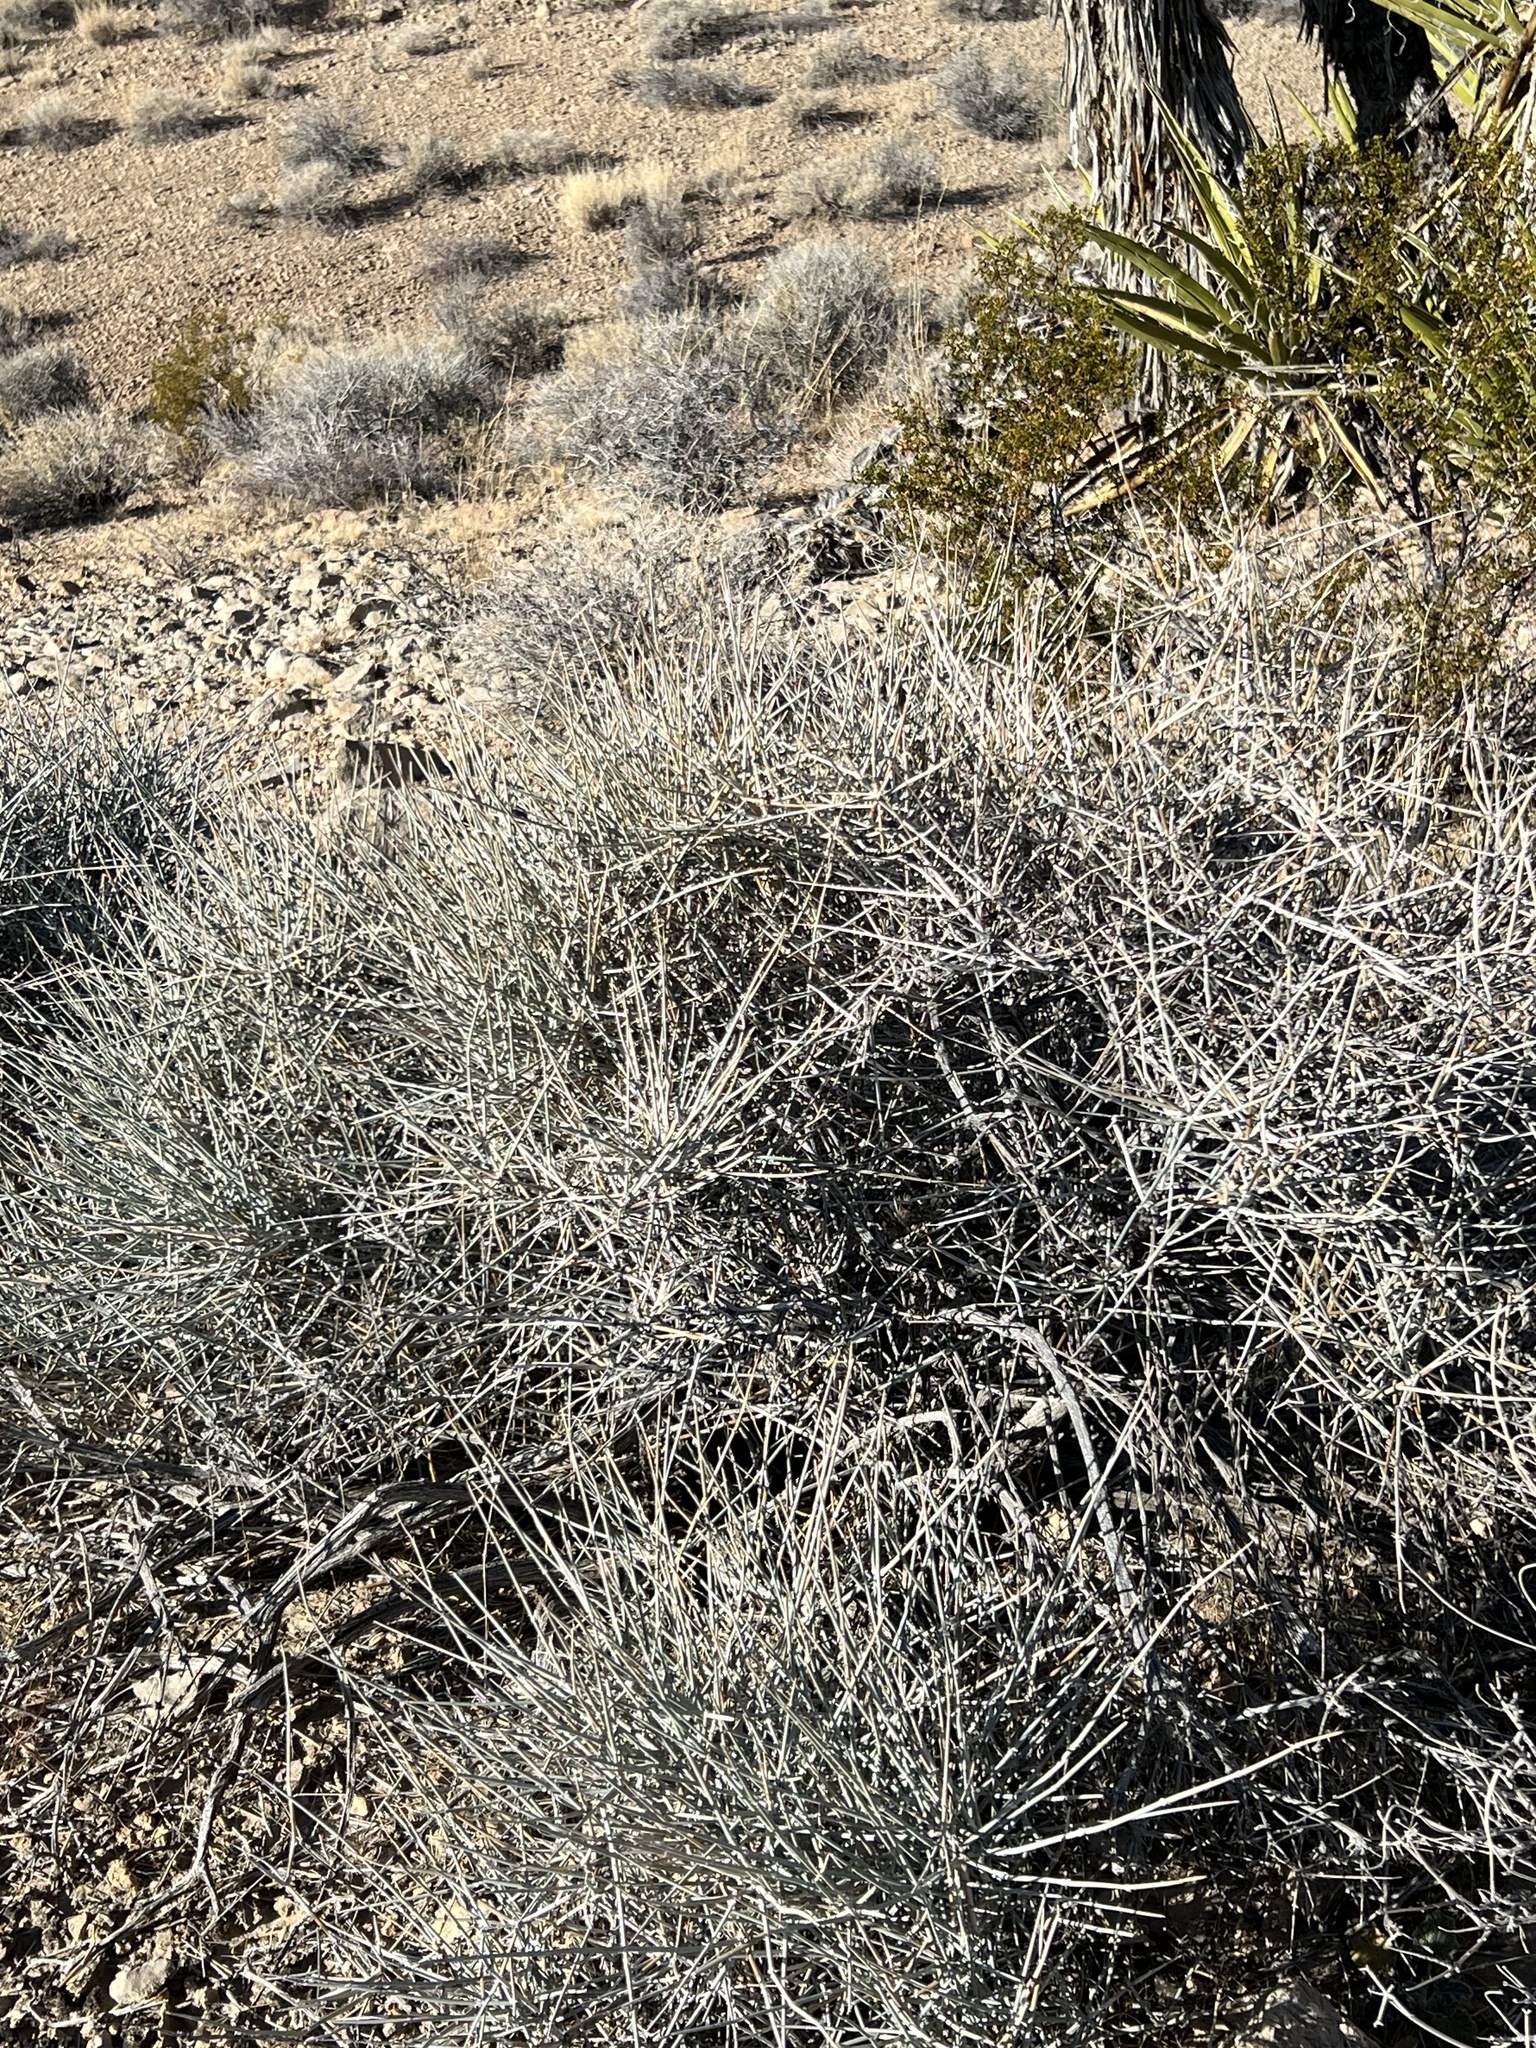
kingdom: Plantae
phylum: Tracheophyta
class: Gnetopsida
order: Ephedrales
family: Ephedraceae
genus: Ephedra
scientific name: Ephedra nevadensis
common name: Gray ephedra
